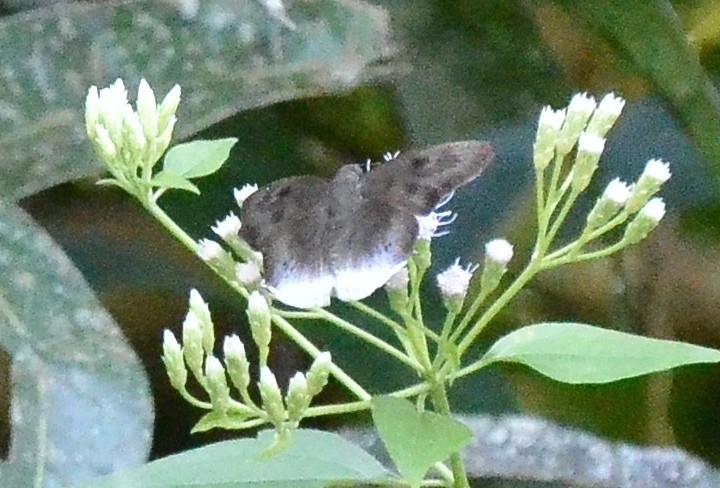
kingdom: Animalia
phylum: Arthropoda
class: Insecta
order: Lepidoptera
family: Hesperiidae
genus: Tagiades
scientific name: Tagiades gana
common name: Suffused snow flat
